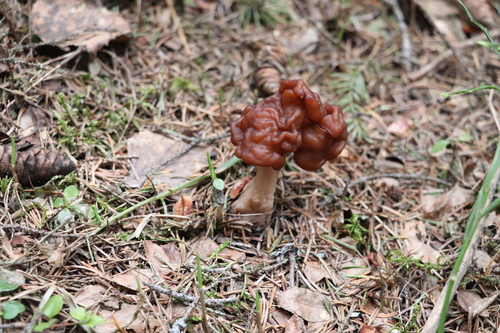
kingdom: Fungi
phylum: Ascomycota
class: Pezizomycetes
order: Pezizales
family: Discinaceae
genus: Gyromitra
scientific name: Gyromitra esculenta
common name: False morel
